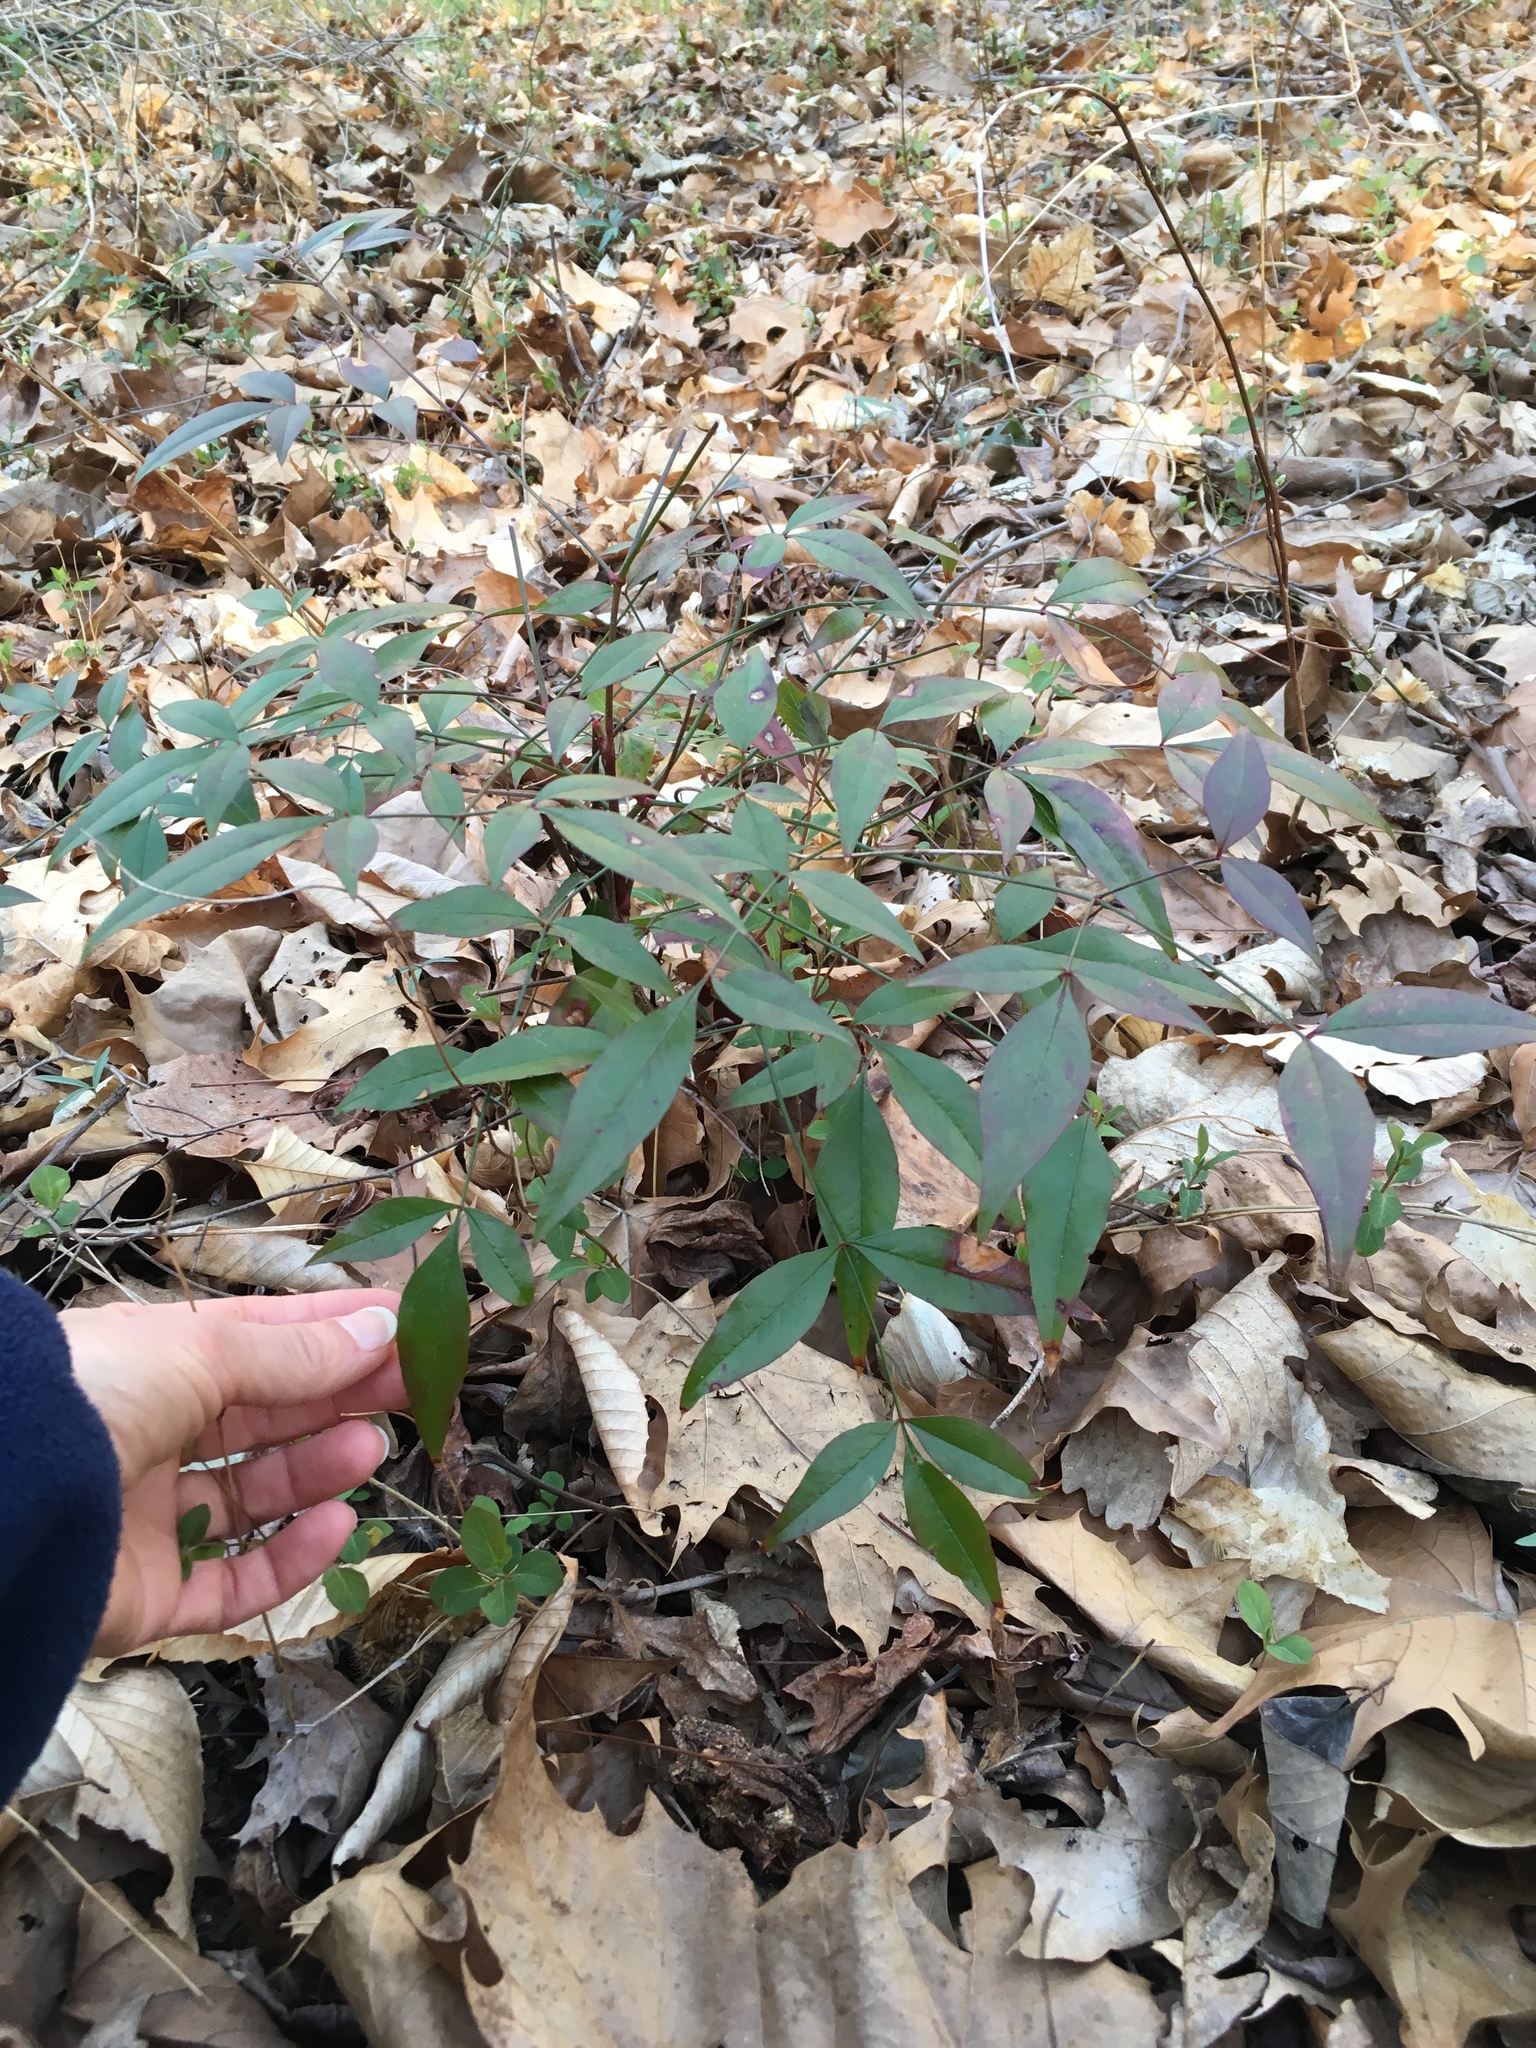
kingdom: Plantae
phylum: Tracheophyta
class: Magnoliopsida
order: Ranunculales
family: Berberidaceae
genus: Nandina
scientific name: Nandina domestica
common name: Sacred bamboo
